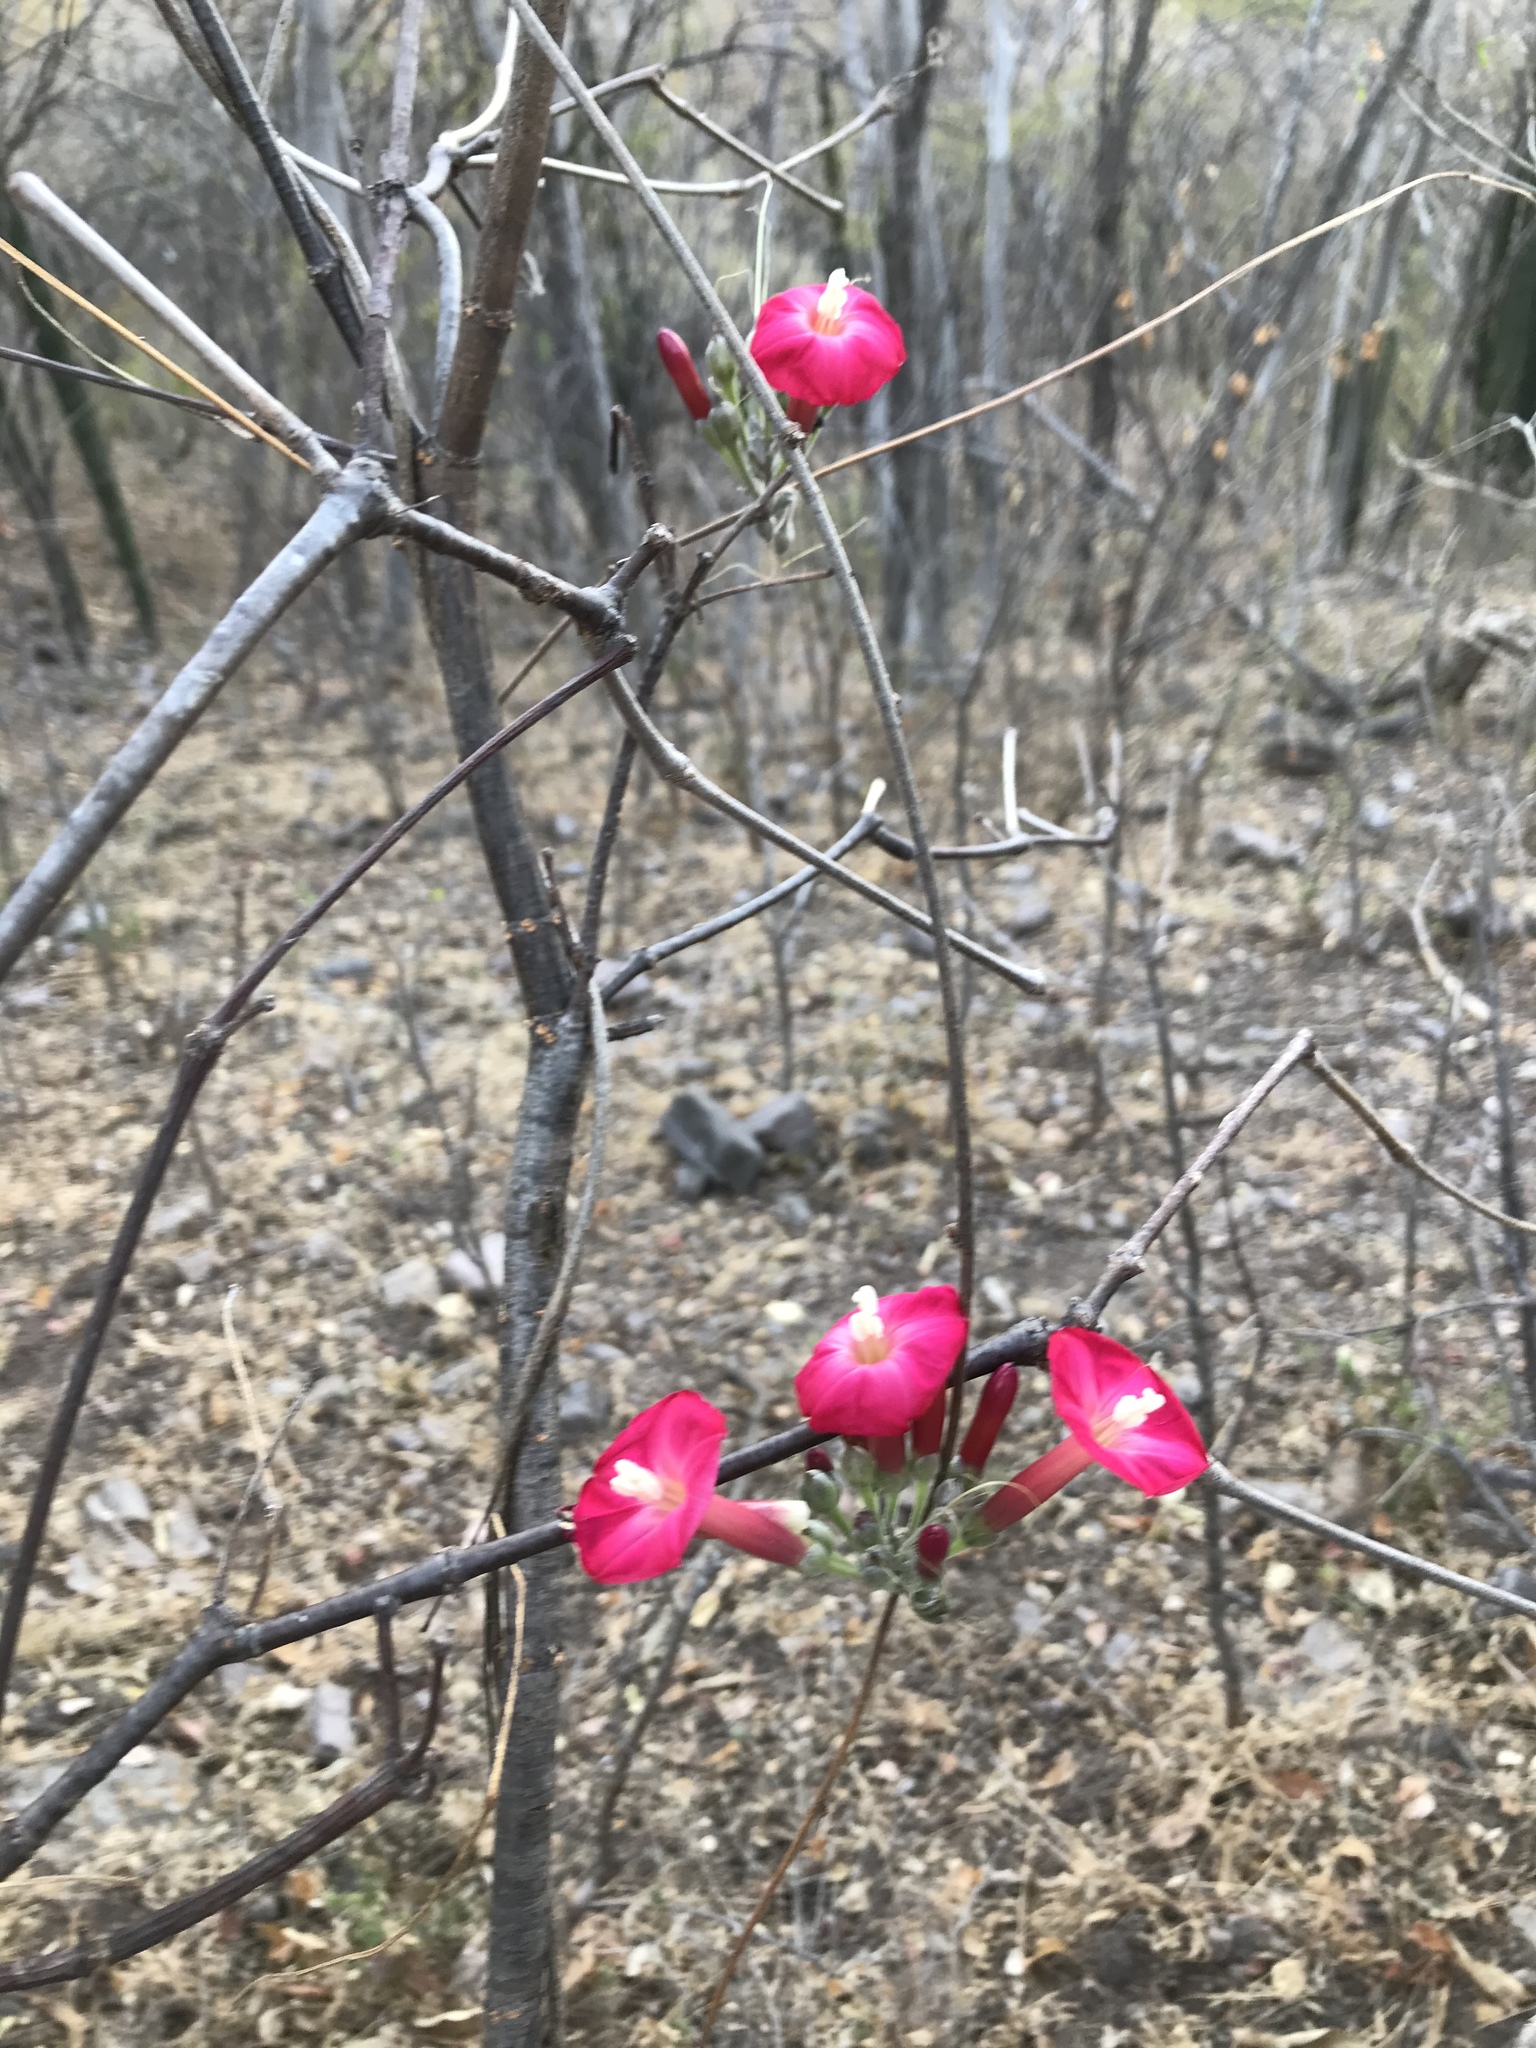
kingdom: Plantae
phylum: Tracheophyta
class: Magnoliopsida
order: Solanales
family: Convolvulaceae
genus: Ipomoea
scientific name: Ipomoea conzattii
